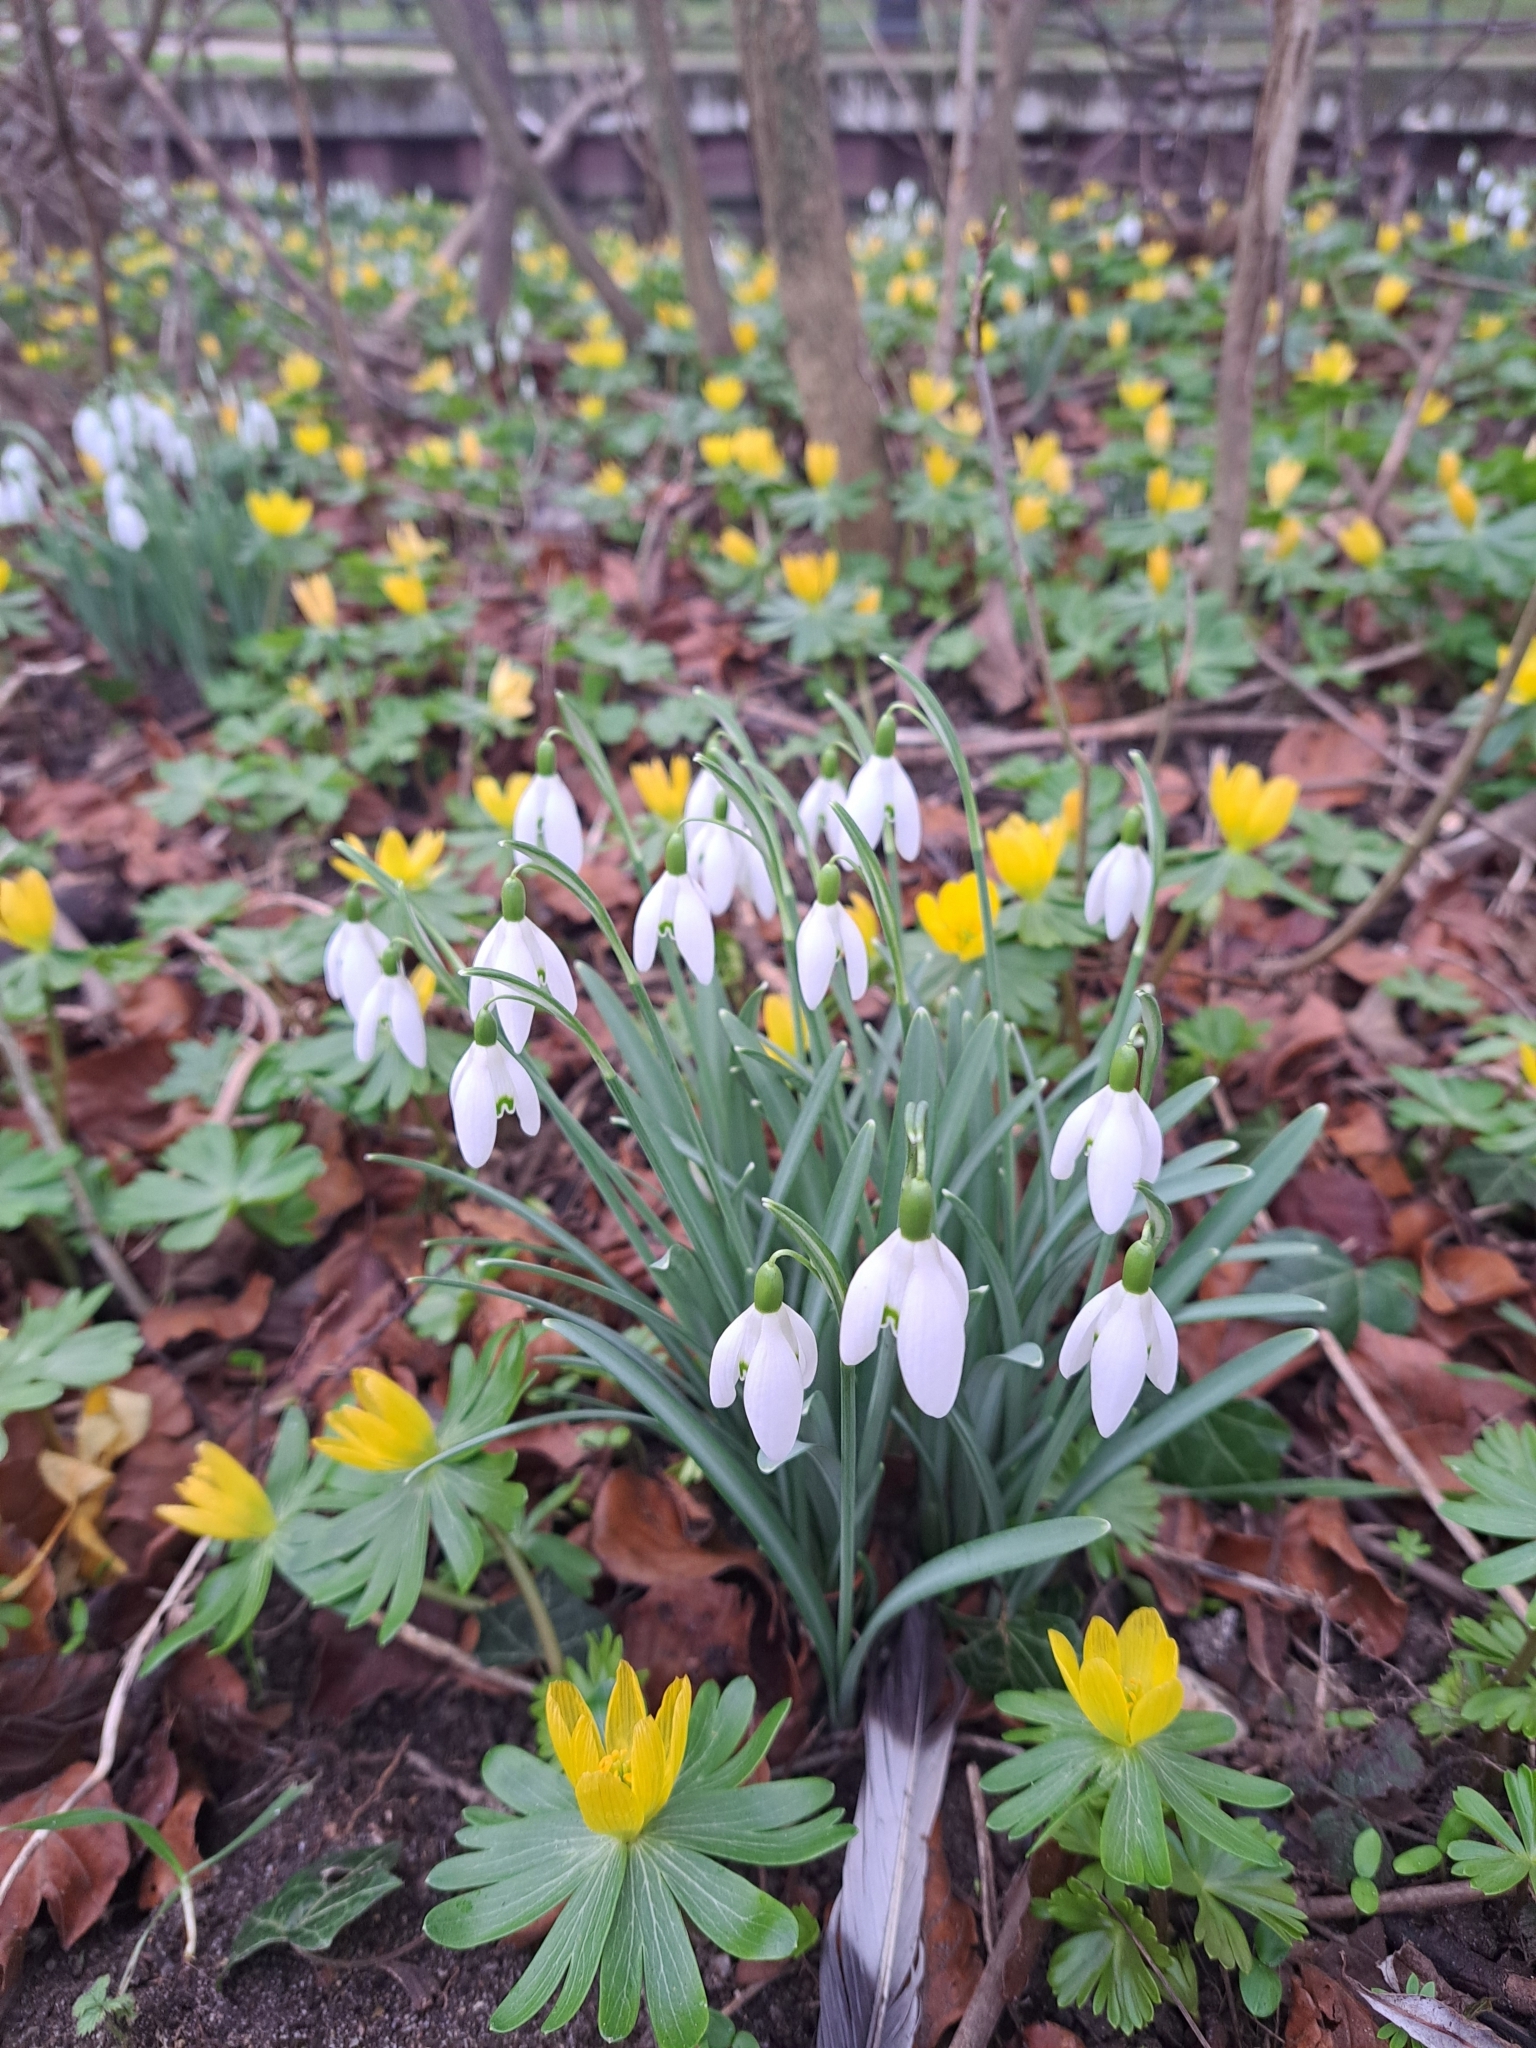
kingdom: Plantae
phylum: Tracheophyta
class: Liliopsida
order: Asparagales
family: Amaryllidaceae
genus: Galanthus
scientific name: Galanthus nivalis
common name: Snowdrop
